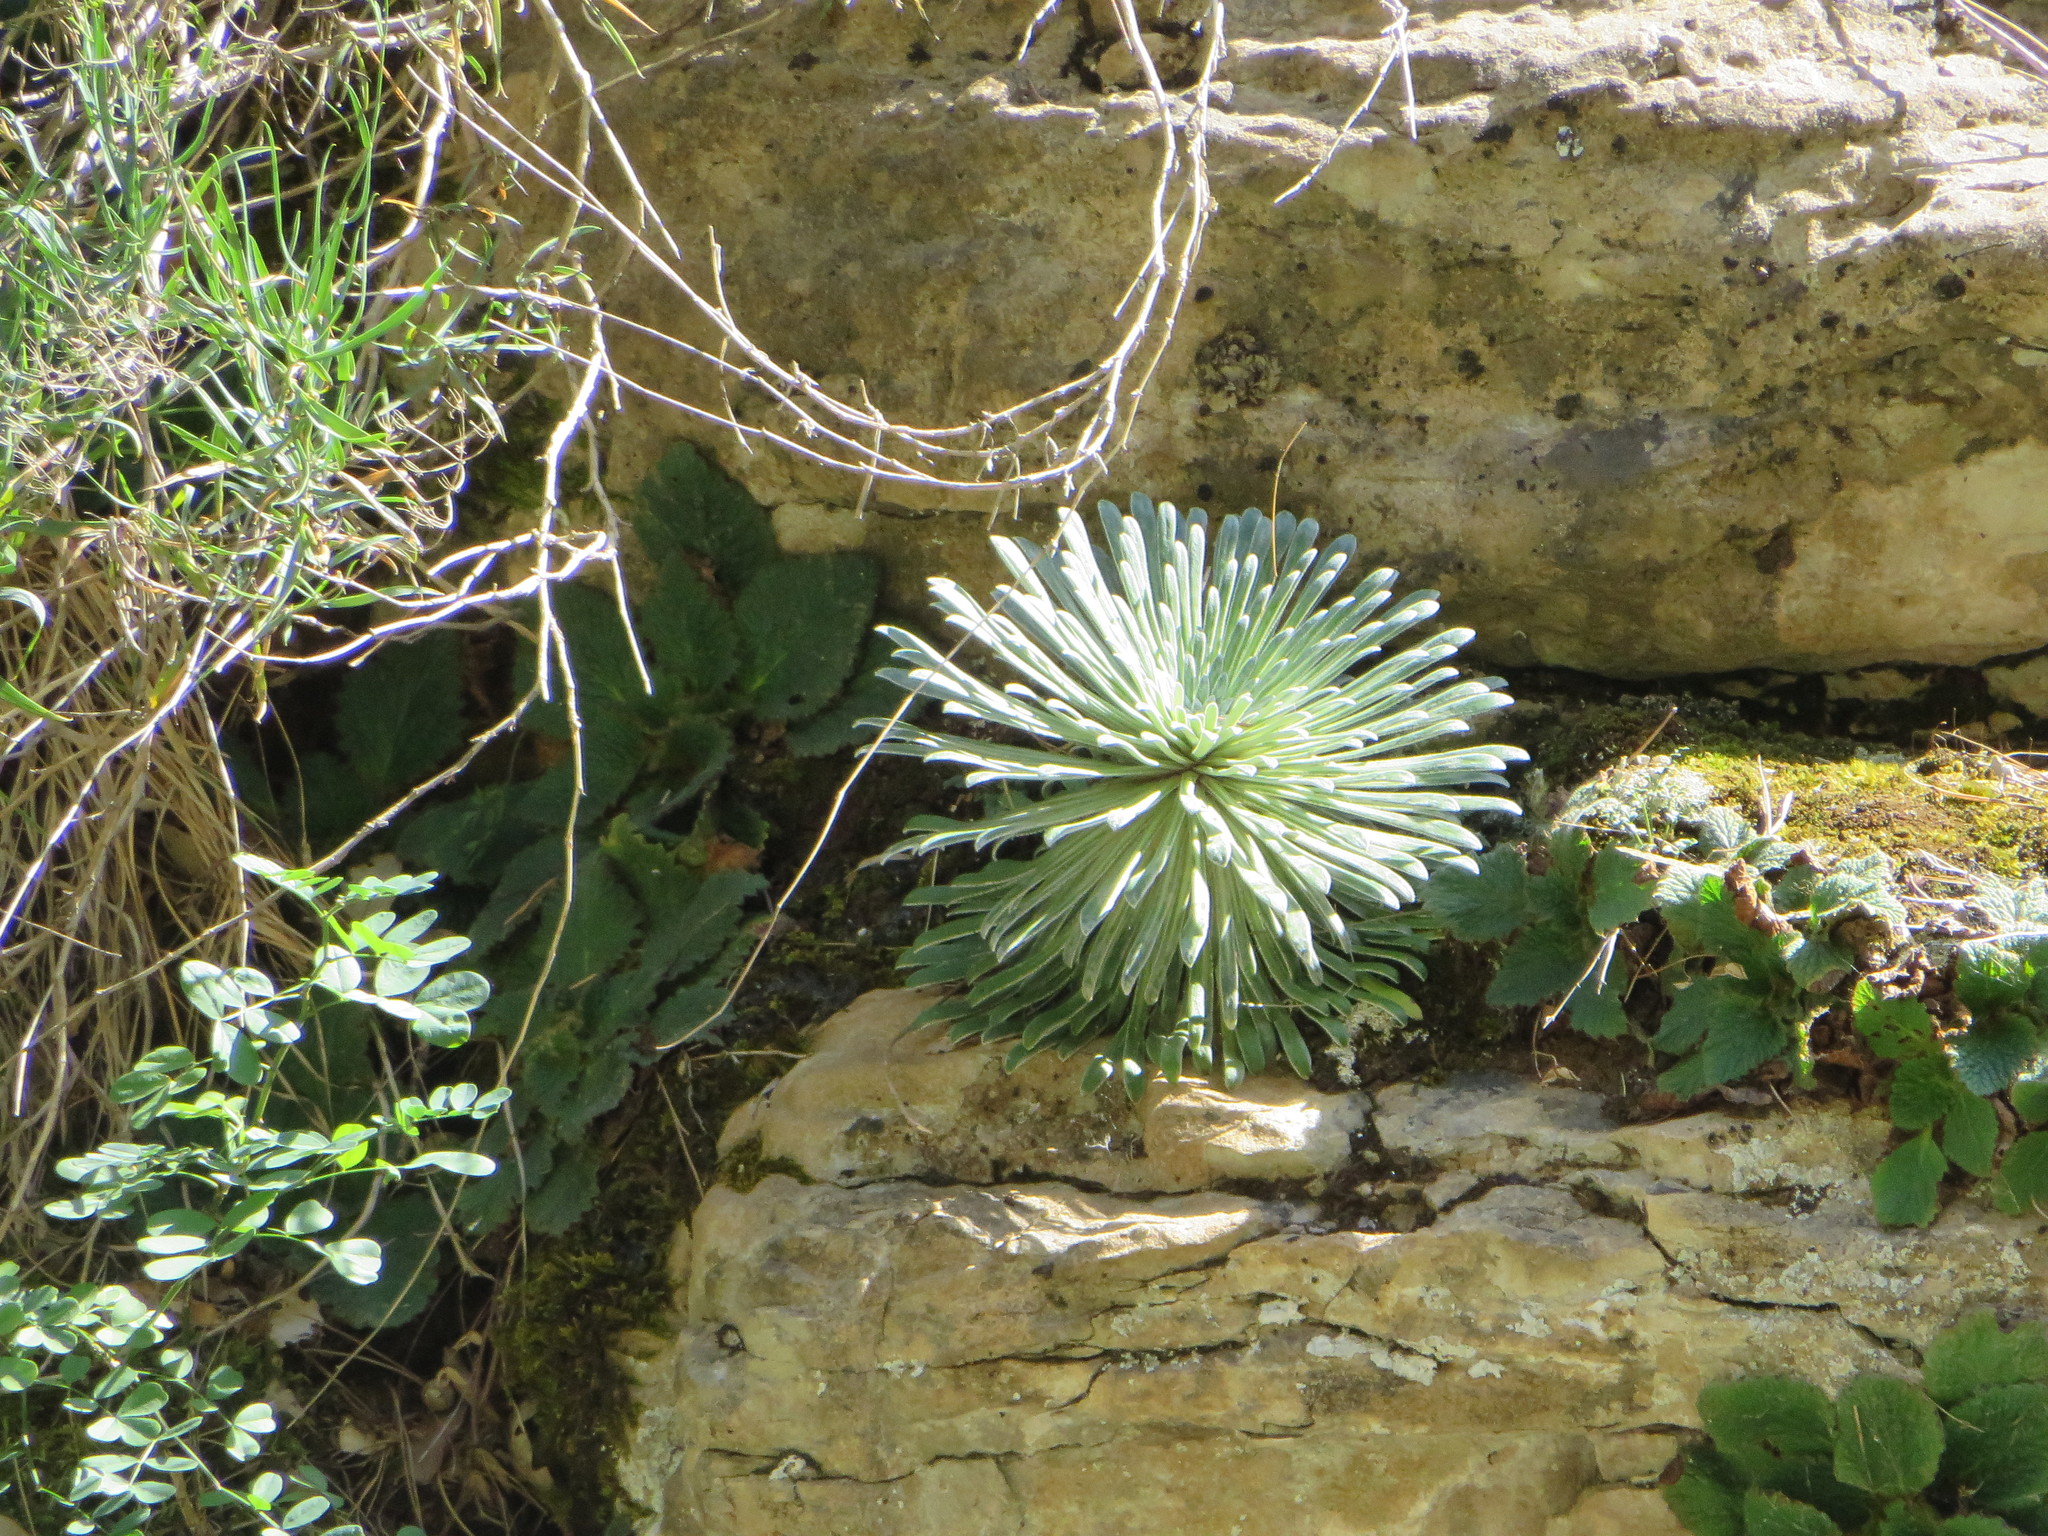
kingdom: Plantae
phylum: Tracheophyta
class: Magnoliopsida
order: Saxifragales
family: Saxifragaceae
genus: Saxifraga
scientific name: Saxifraga longifolia
